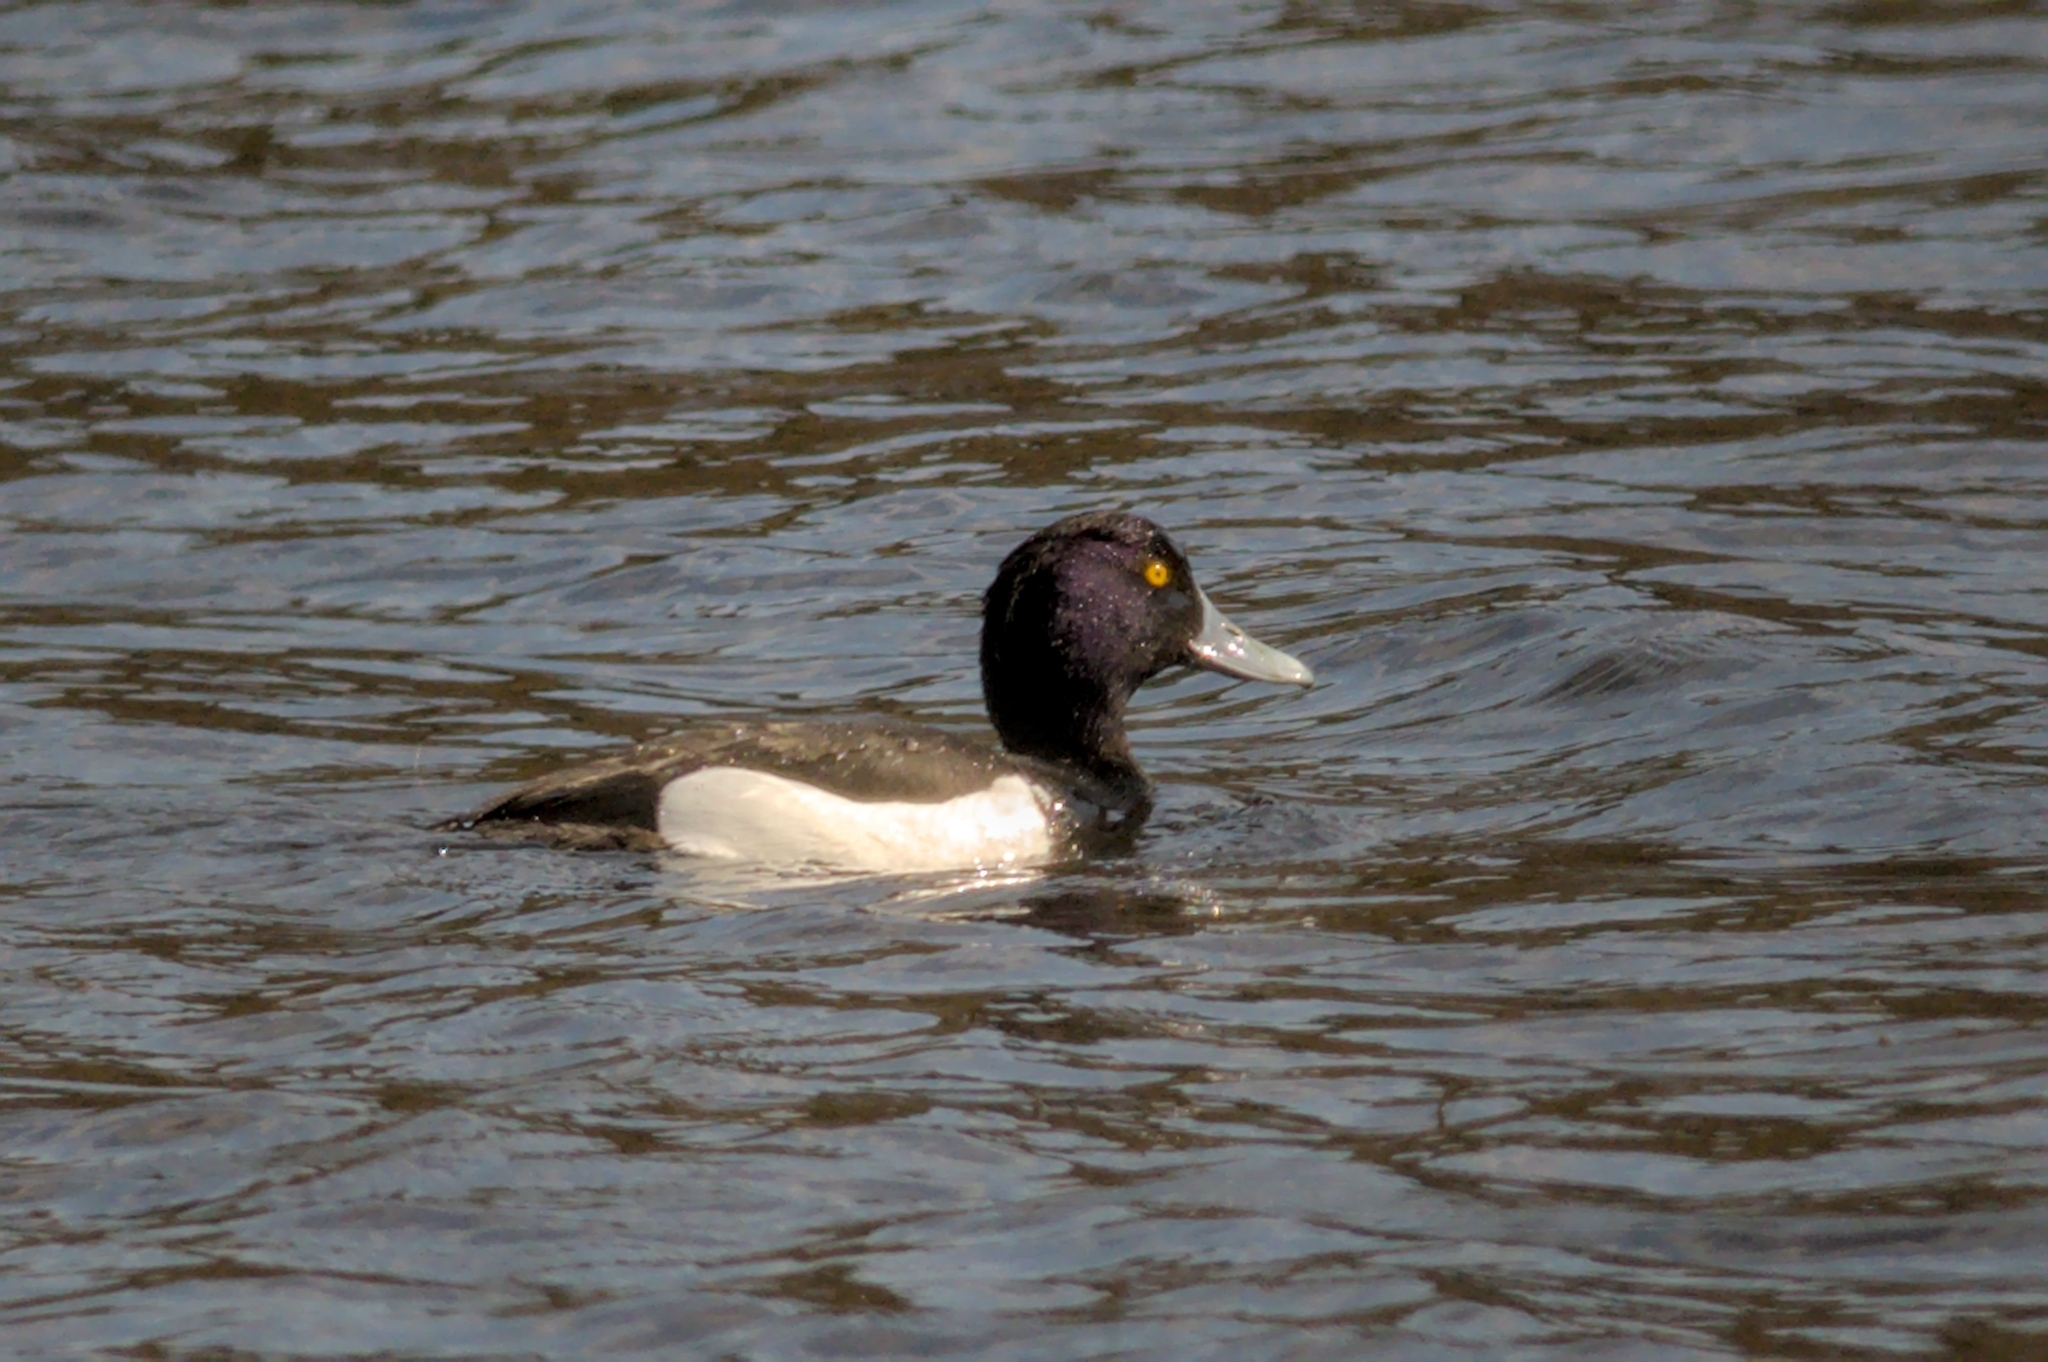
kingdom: Animalia
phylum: Chordata
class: Aves
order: Anseriformes
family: Anatidae
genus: Aythya
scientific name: Aythya fuligula
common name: Tufted duck
